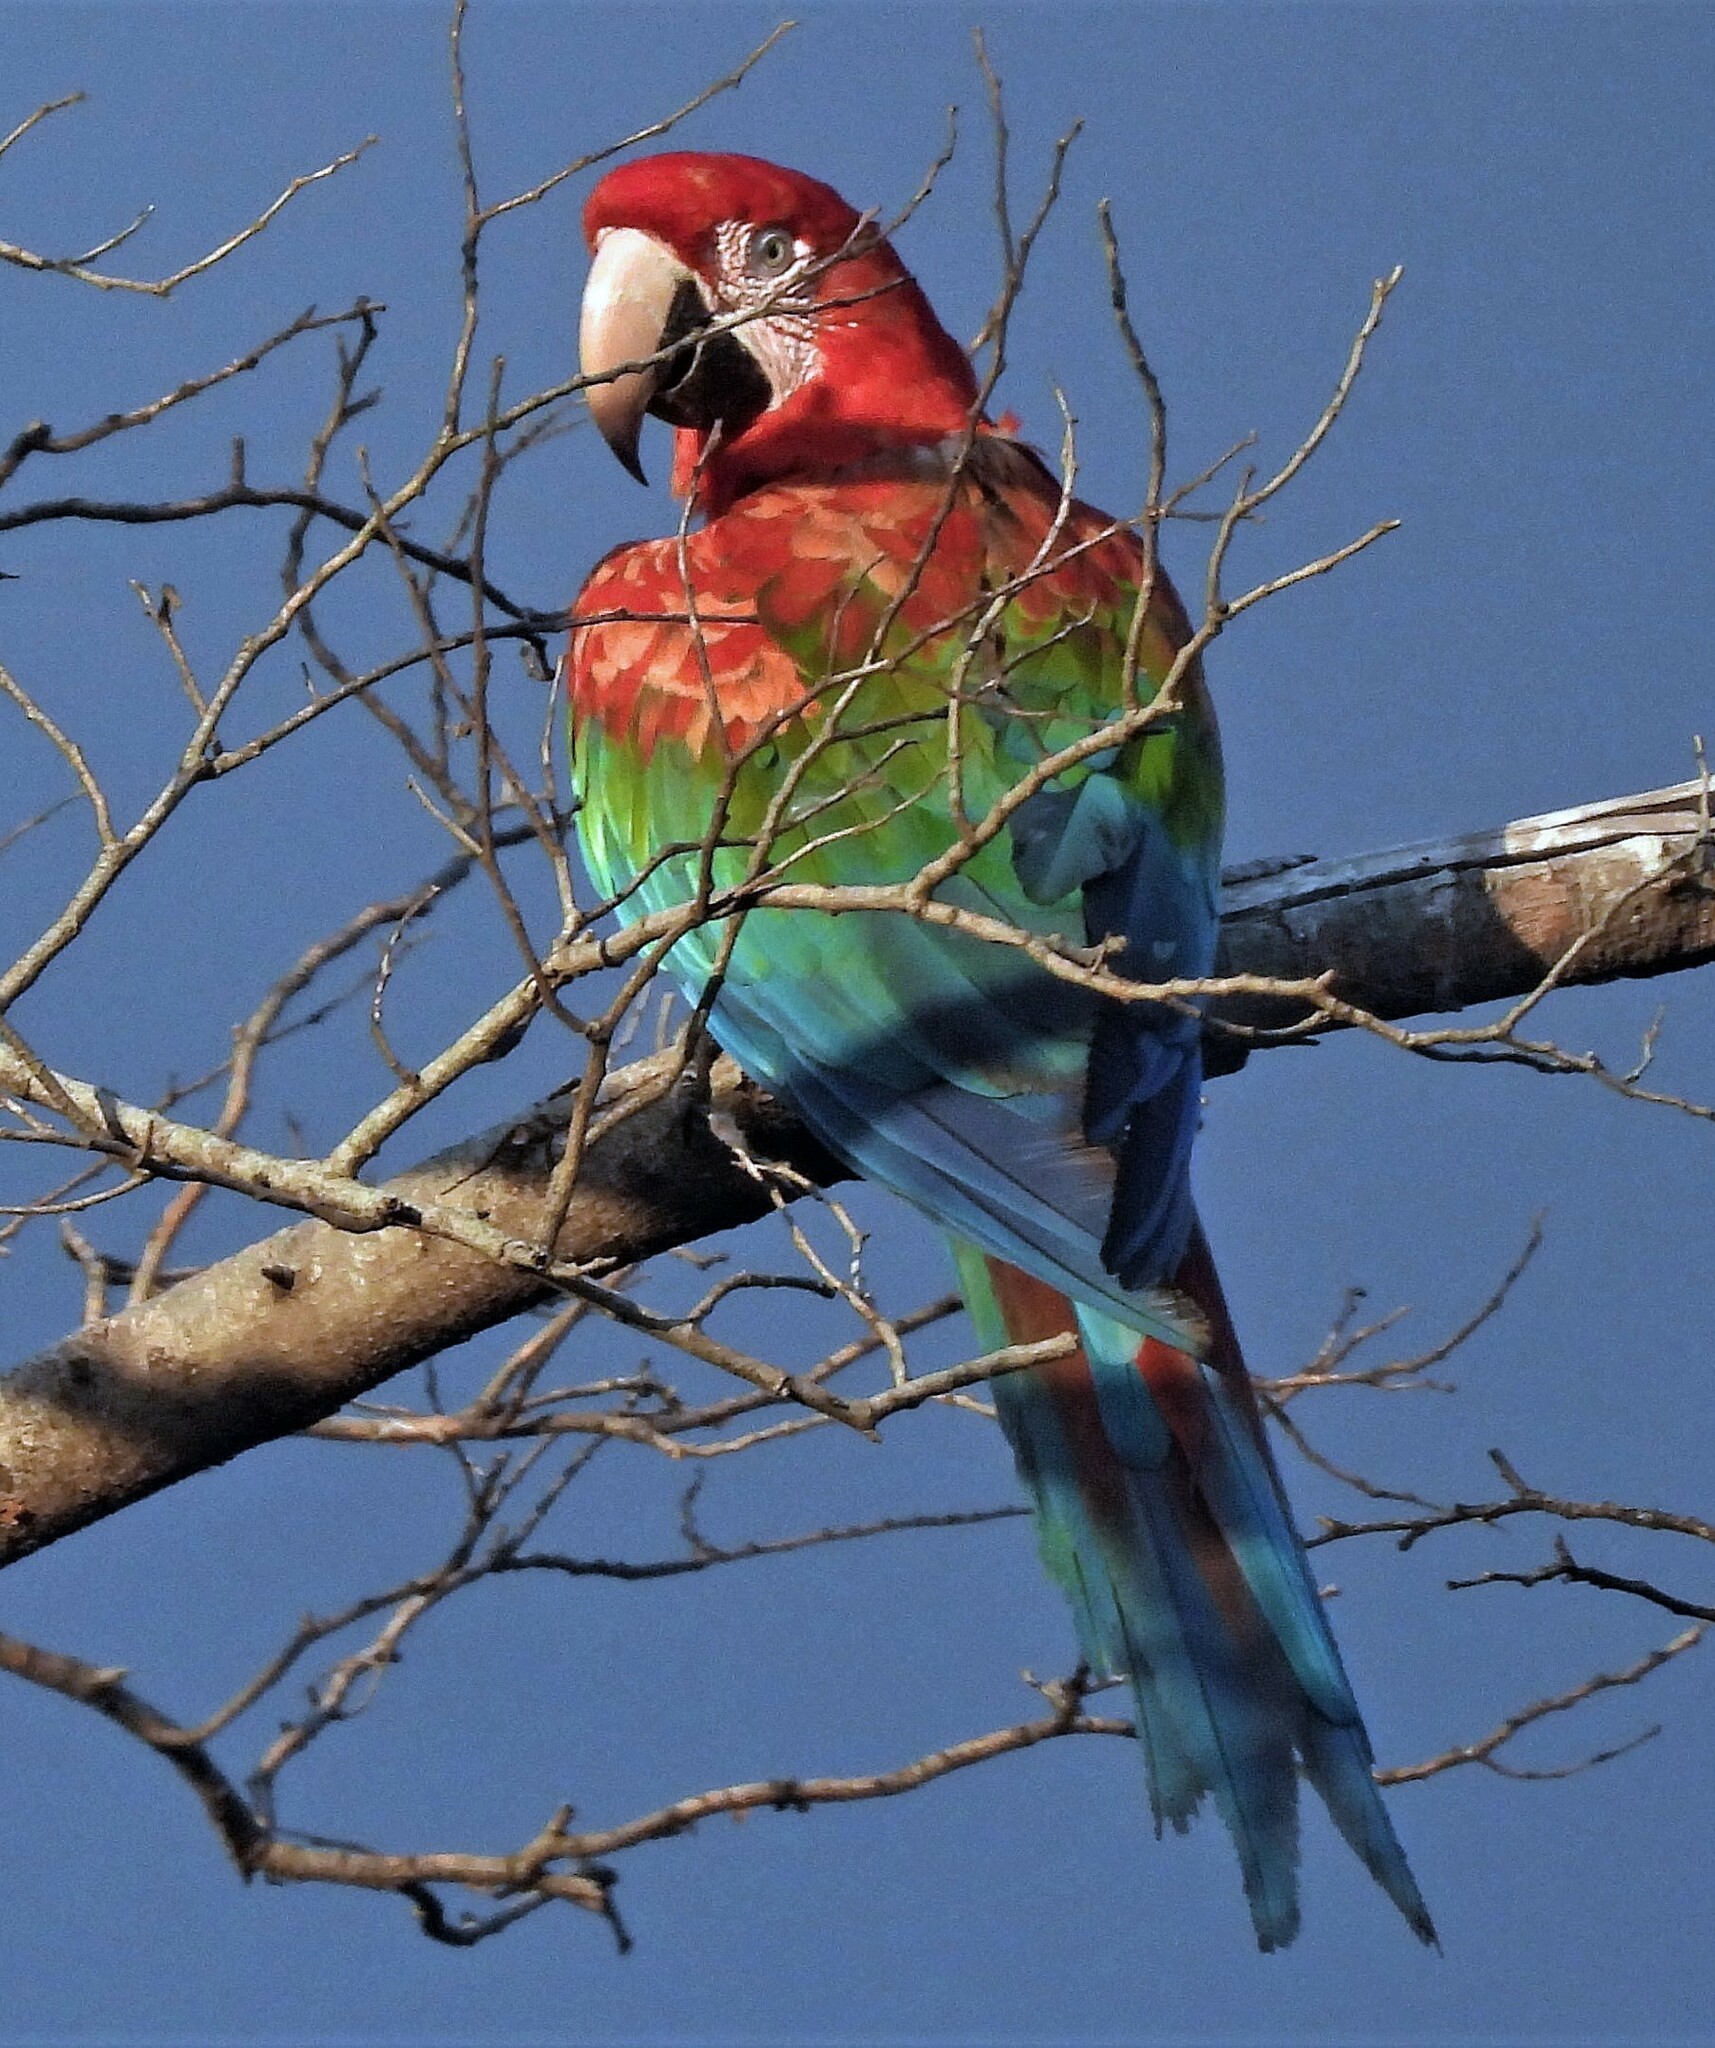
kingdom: Animalia
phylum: Chordata
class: Aves
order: Psittaciformes
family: Psittacidae
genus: Ara
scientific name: Ara chloropterus
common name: Red-and-green macaw
